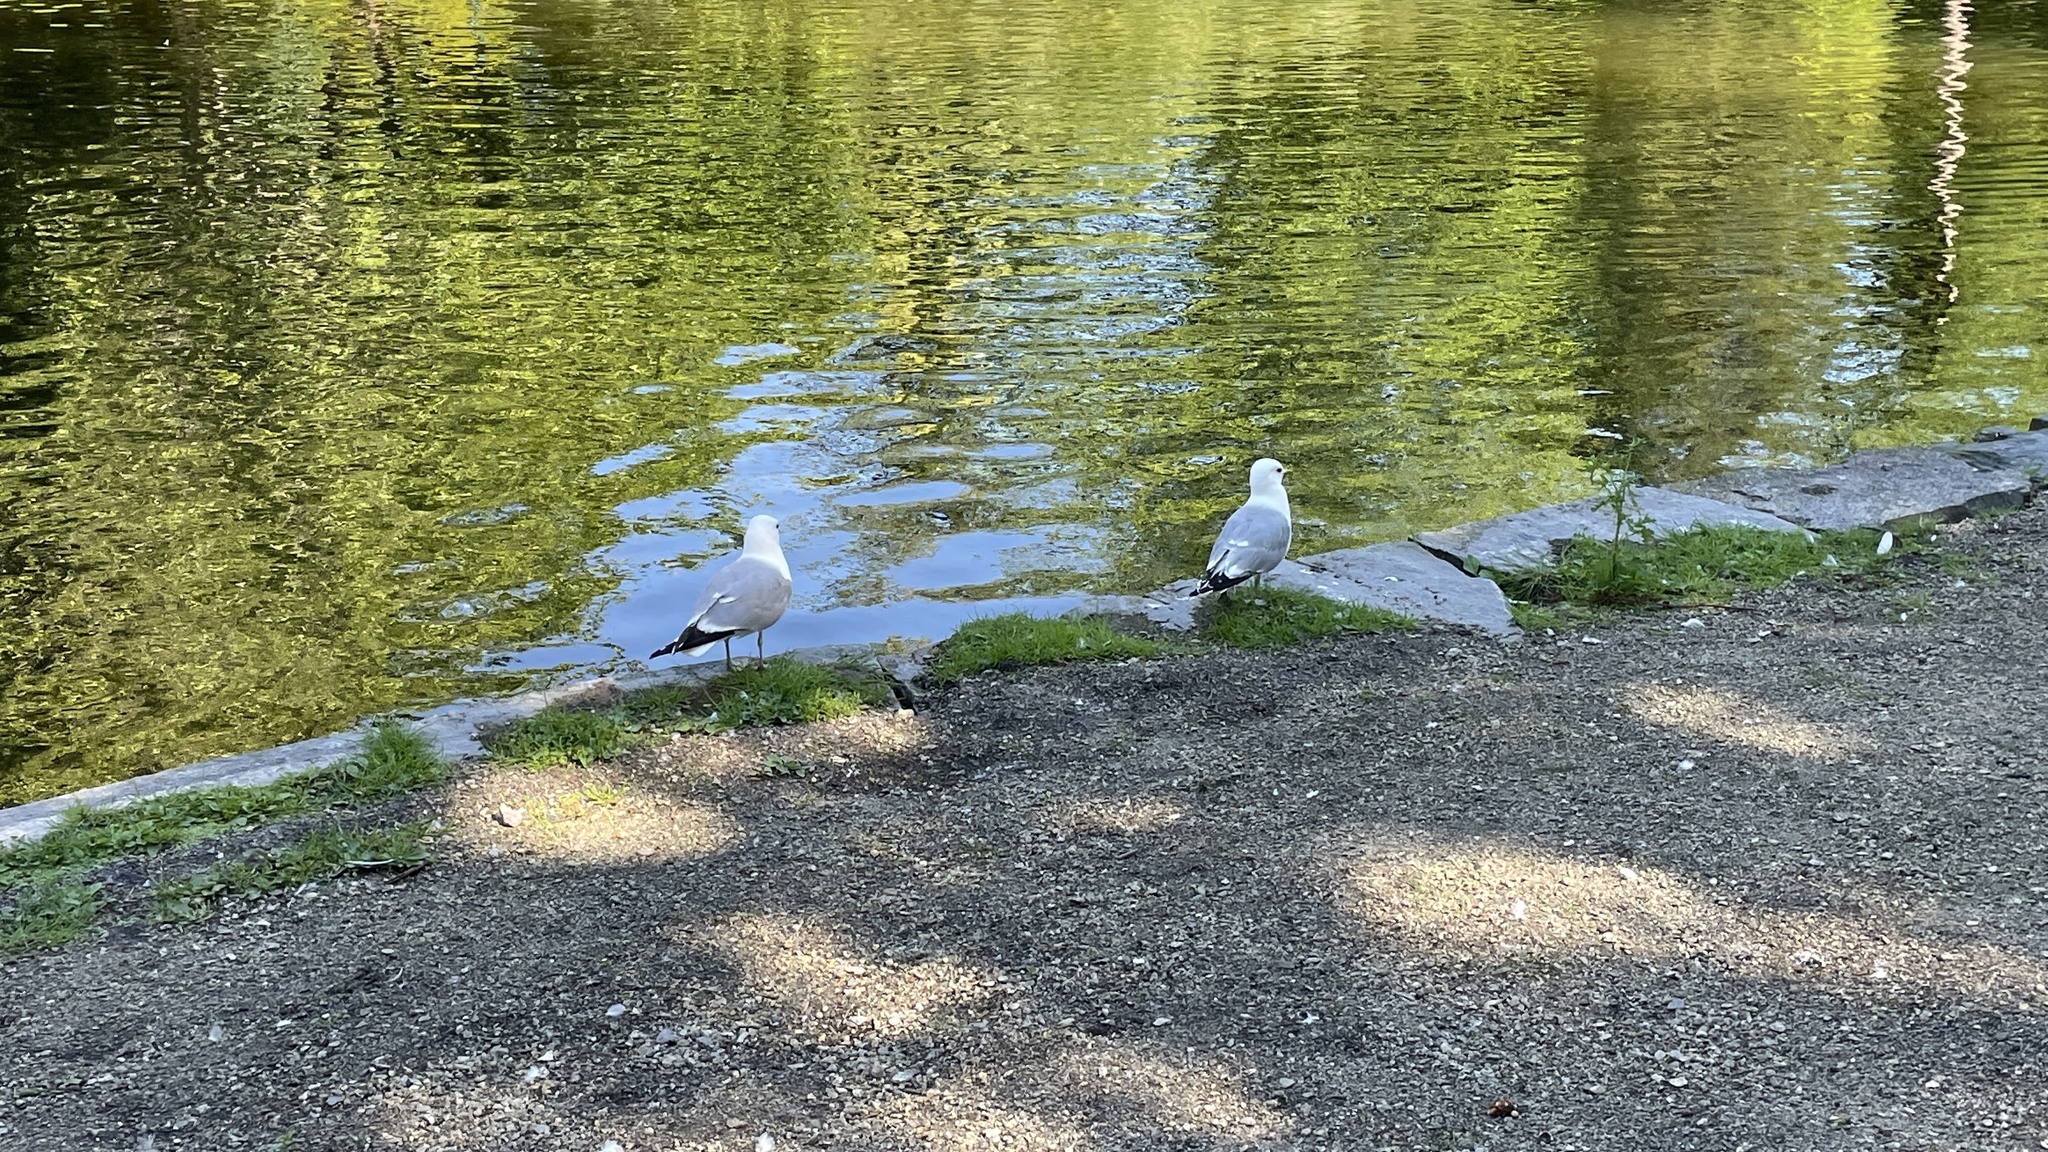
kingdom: Animalia
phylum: Chordata
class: Aves
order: Charadriiformes
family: Laridae
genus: Larus
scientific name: Larus canus
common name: Mew gull
